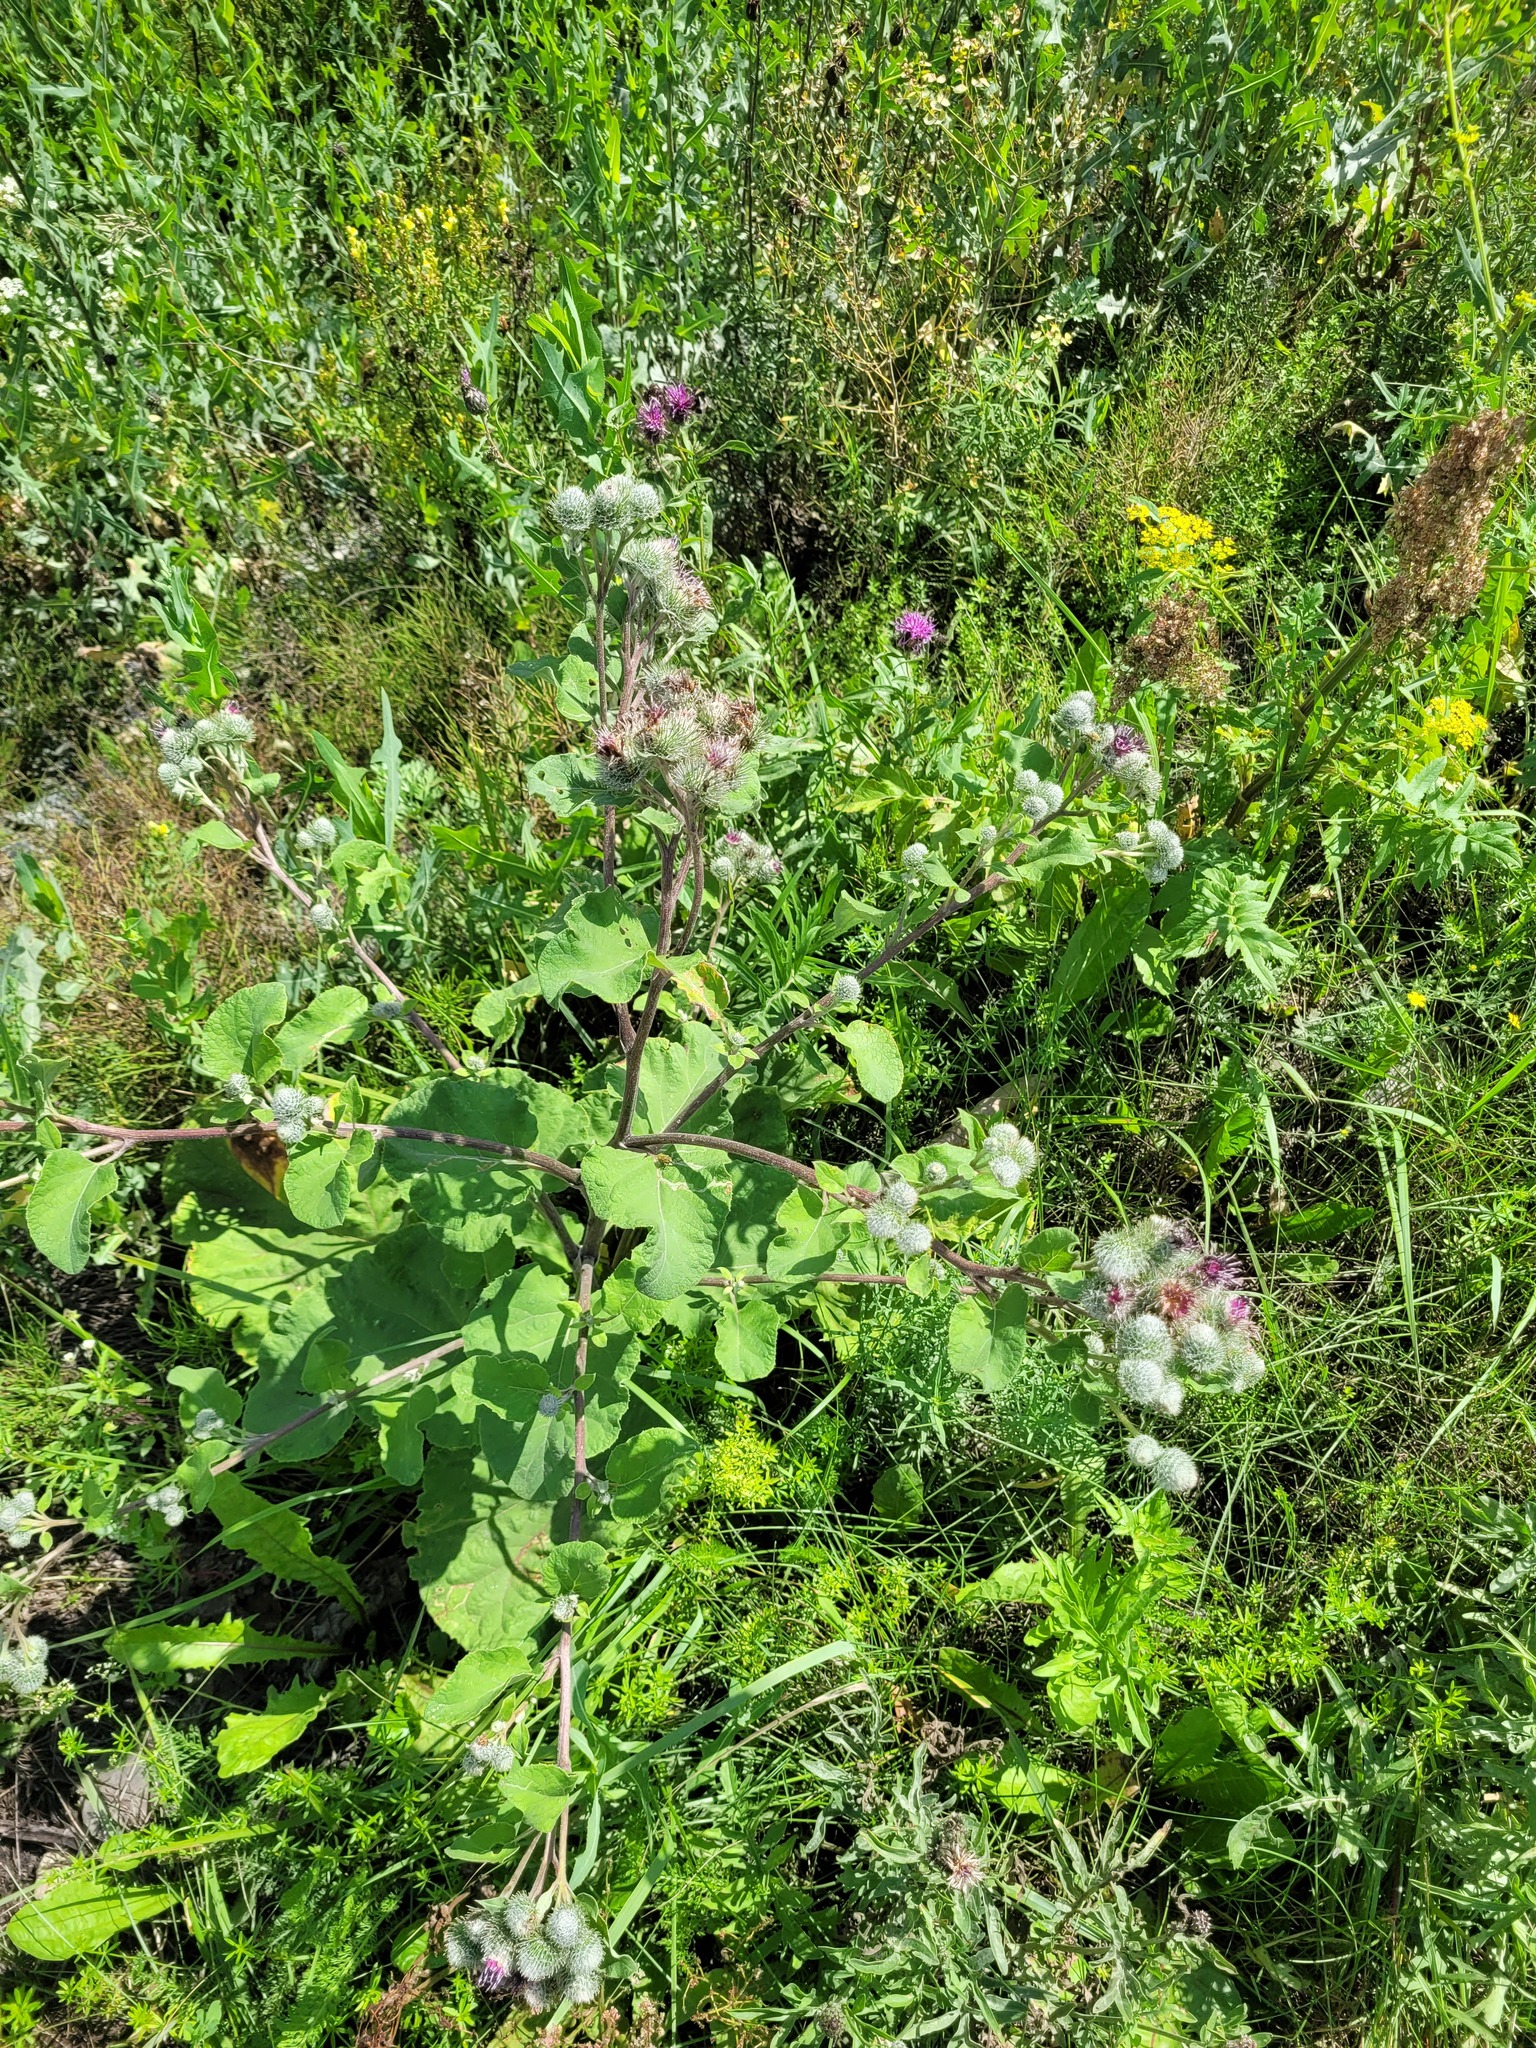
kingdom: Plantae
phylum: Tracheophyta
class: Magnoliopsida
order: Asterales
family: Asteraceae
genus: Arctium
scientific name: Arctium tomentosum
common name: Woolly burdock
